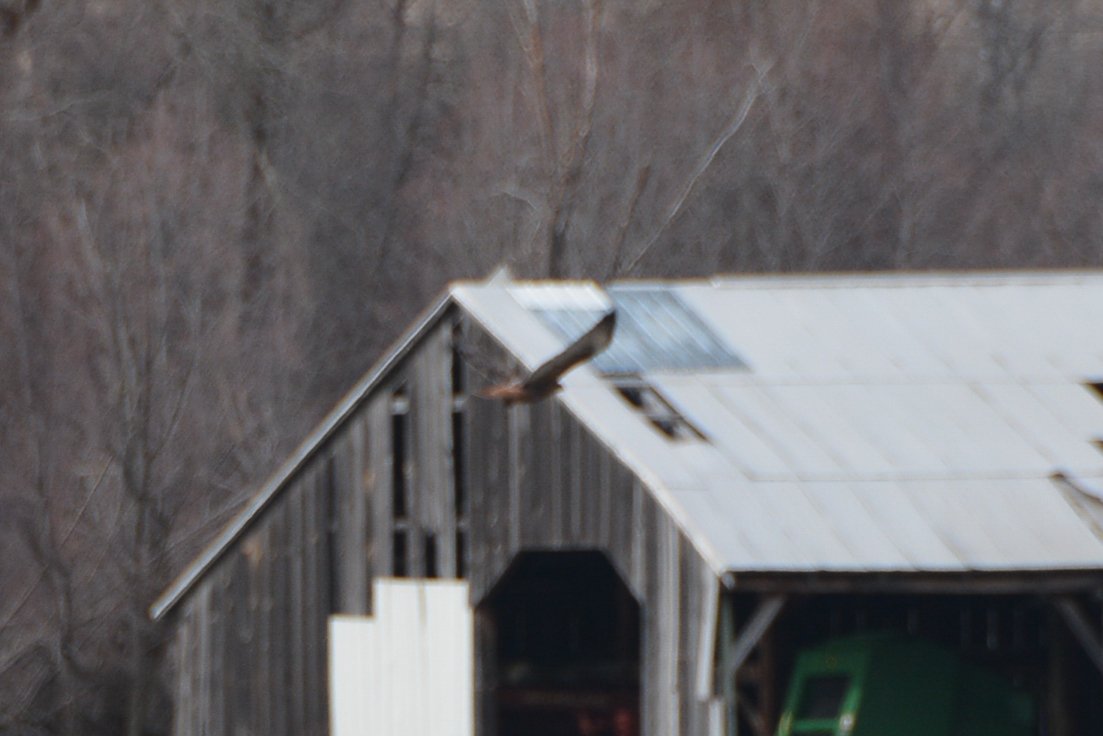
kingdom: Animalia
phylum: Chordata
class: Aves
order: Accipitriformes
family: Accipitridae
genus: Buteo
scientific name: Buteo jamaicensis
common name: Red-tailed hawk
